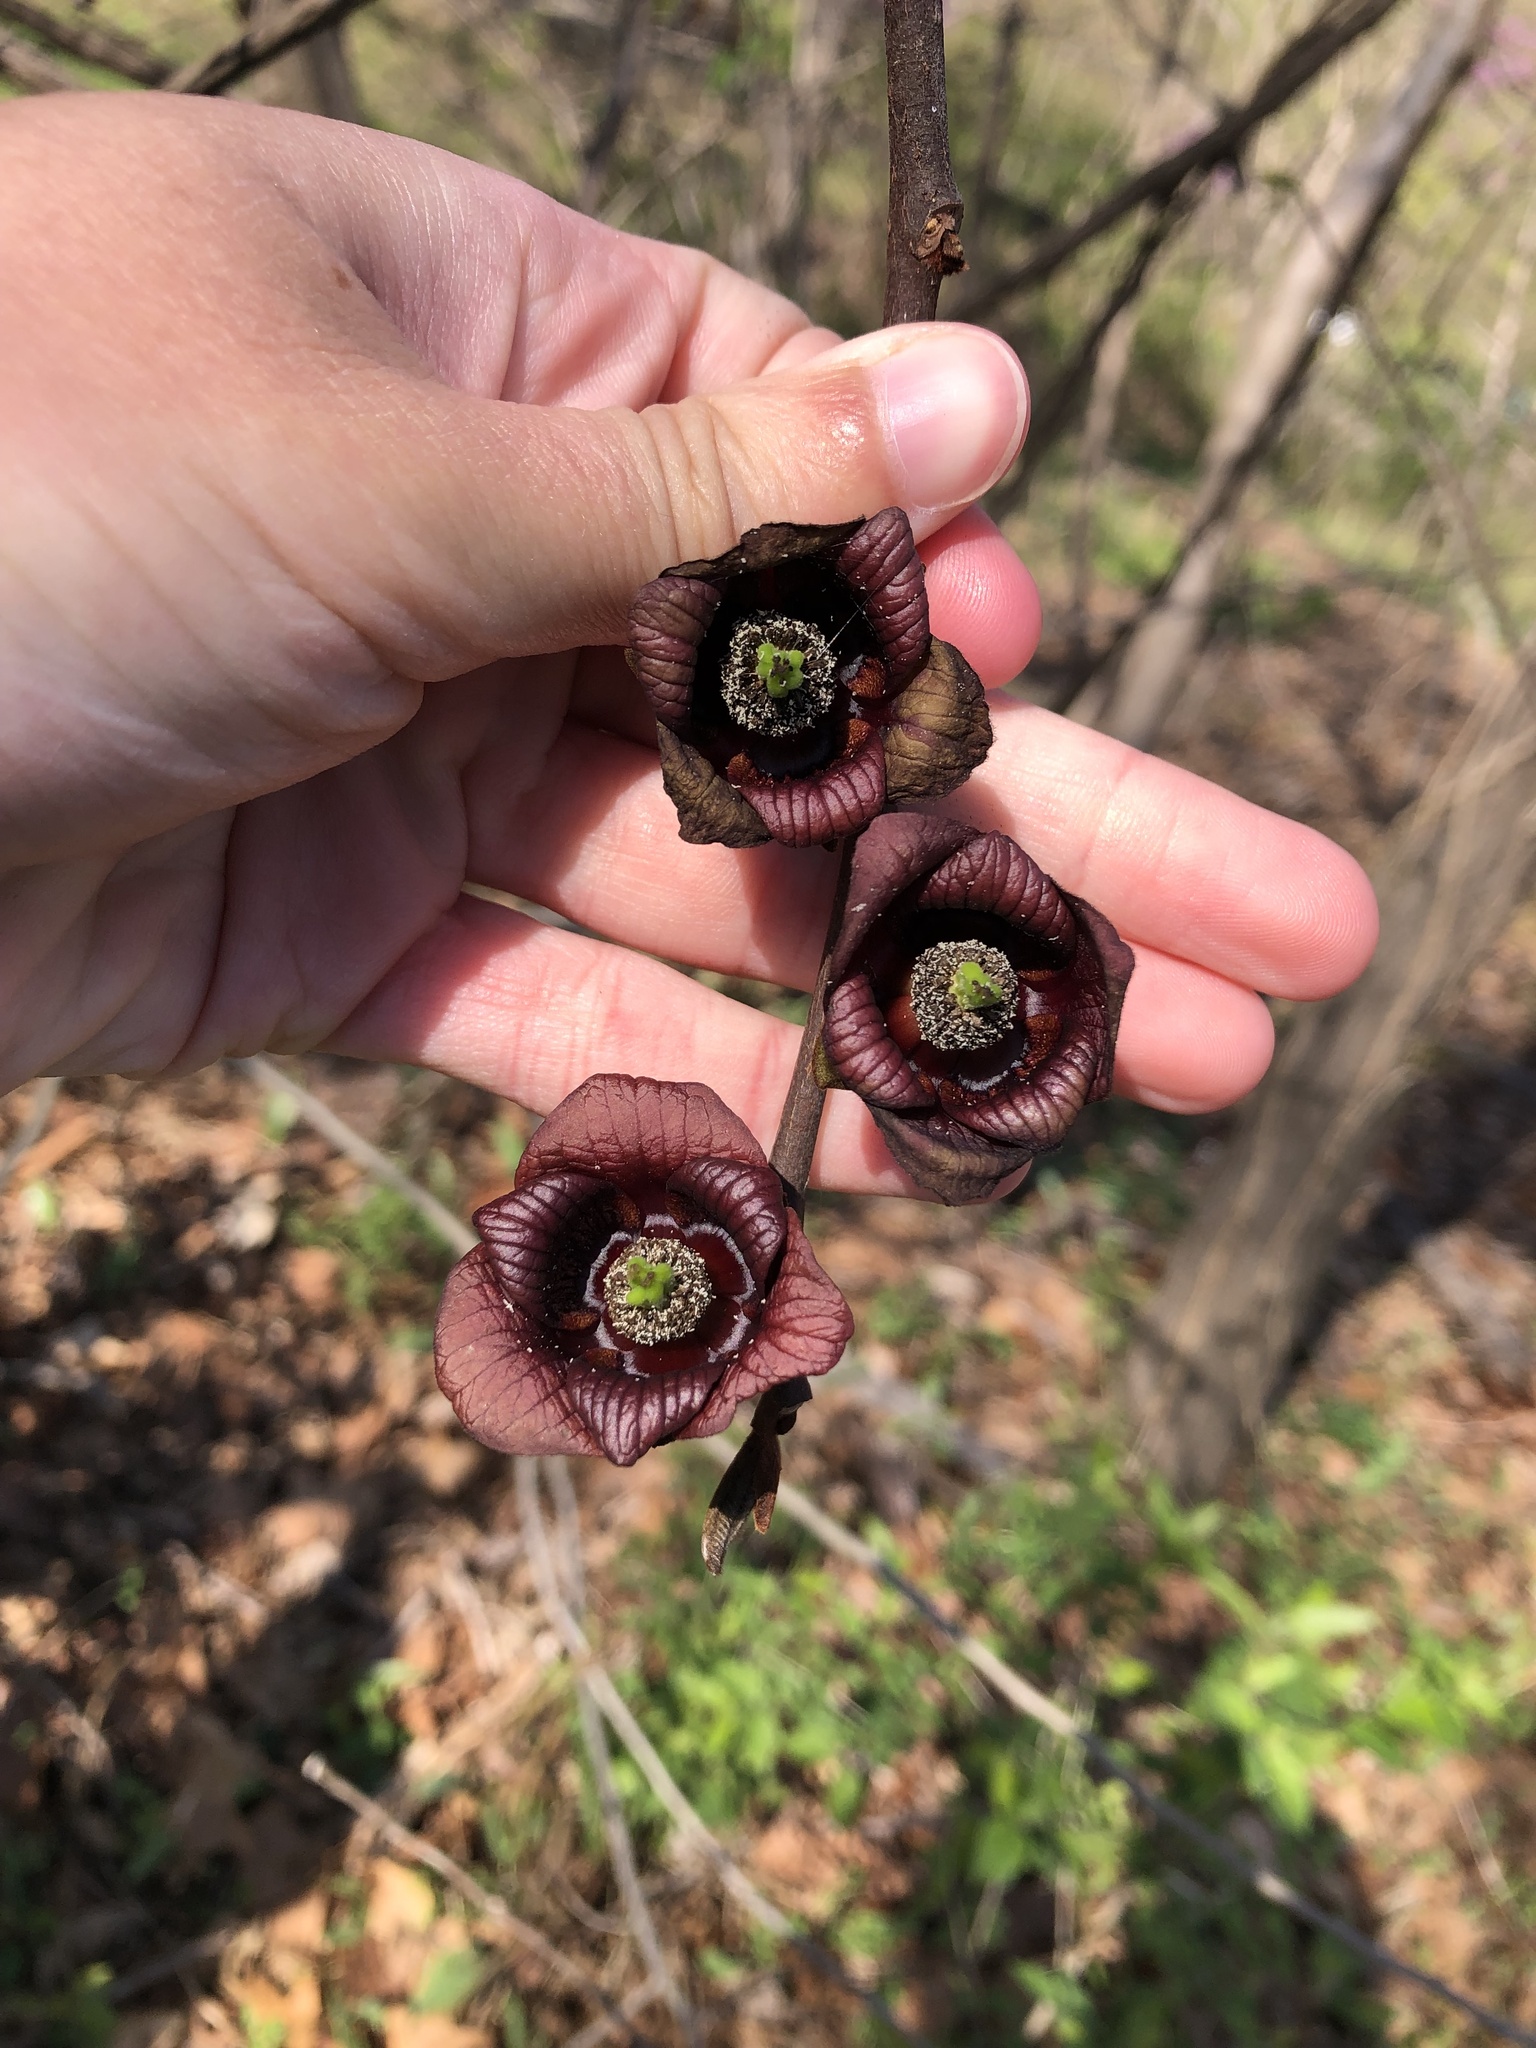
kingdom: Plantae
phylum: Tracheophyta
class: Magnoliopsida
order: Magnoliales
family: Annonaceae
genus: Asimina
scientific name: Asimina triloba
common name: Dog-banana
